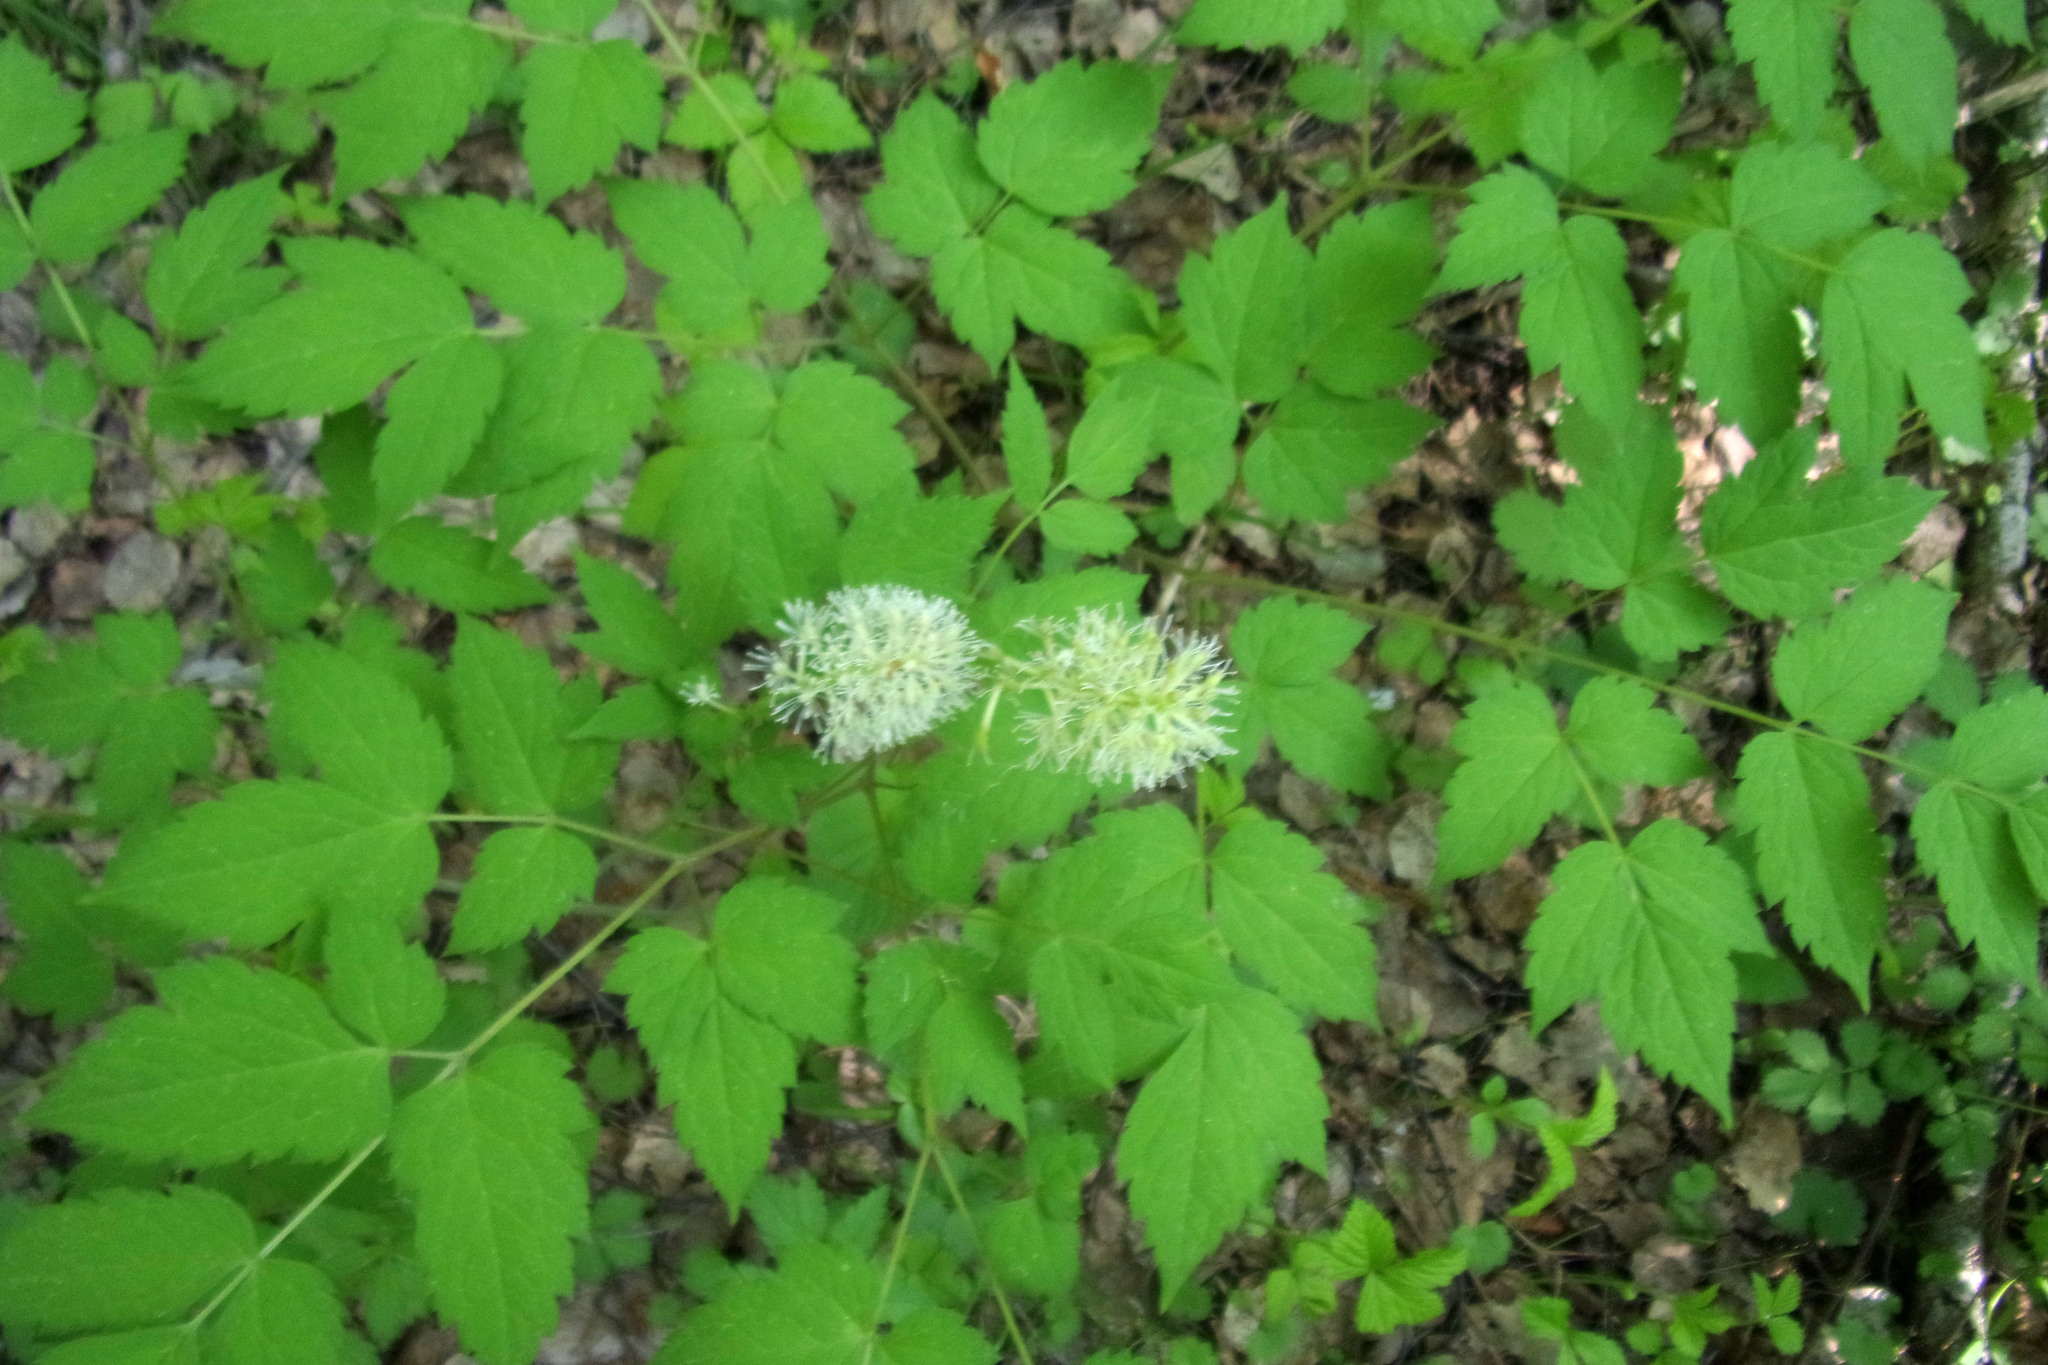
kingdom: Plantae
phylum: Tracheophyta
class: Magnoliopsida
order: Ranunculales
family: Ranunculaceae
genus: Actaea
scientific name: Actaea erythrocarpa
